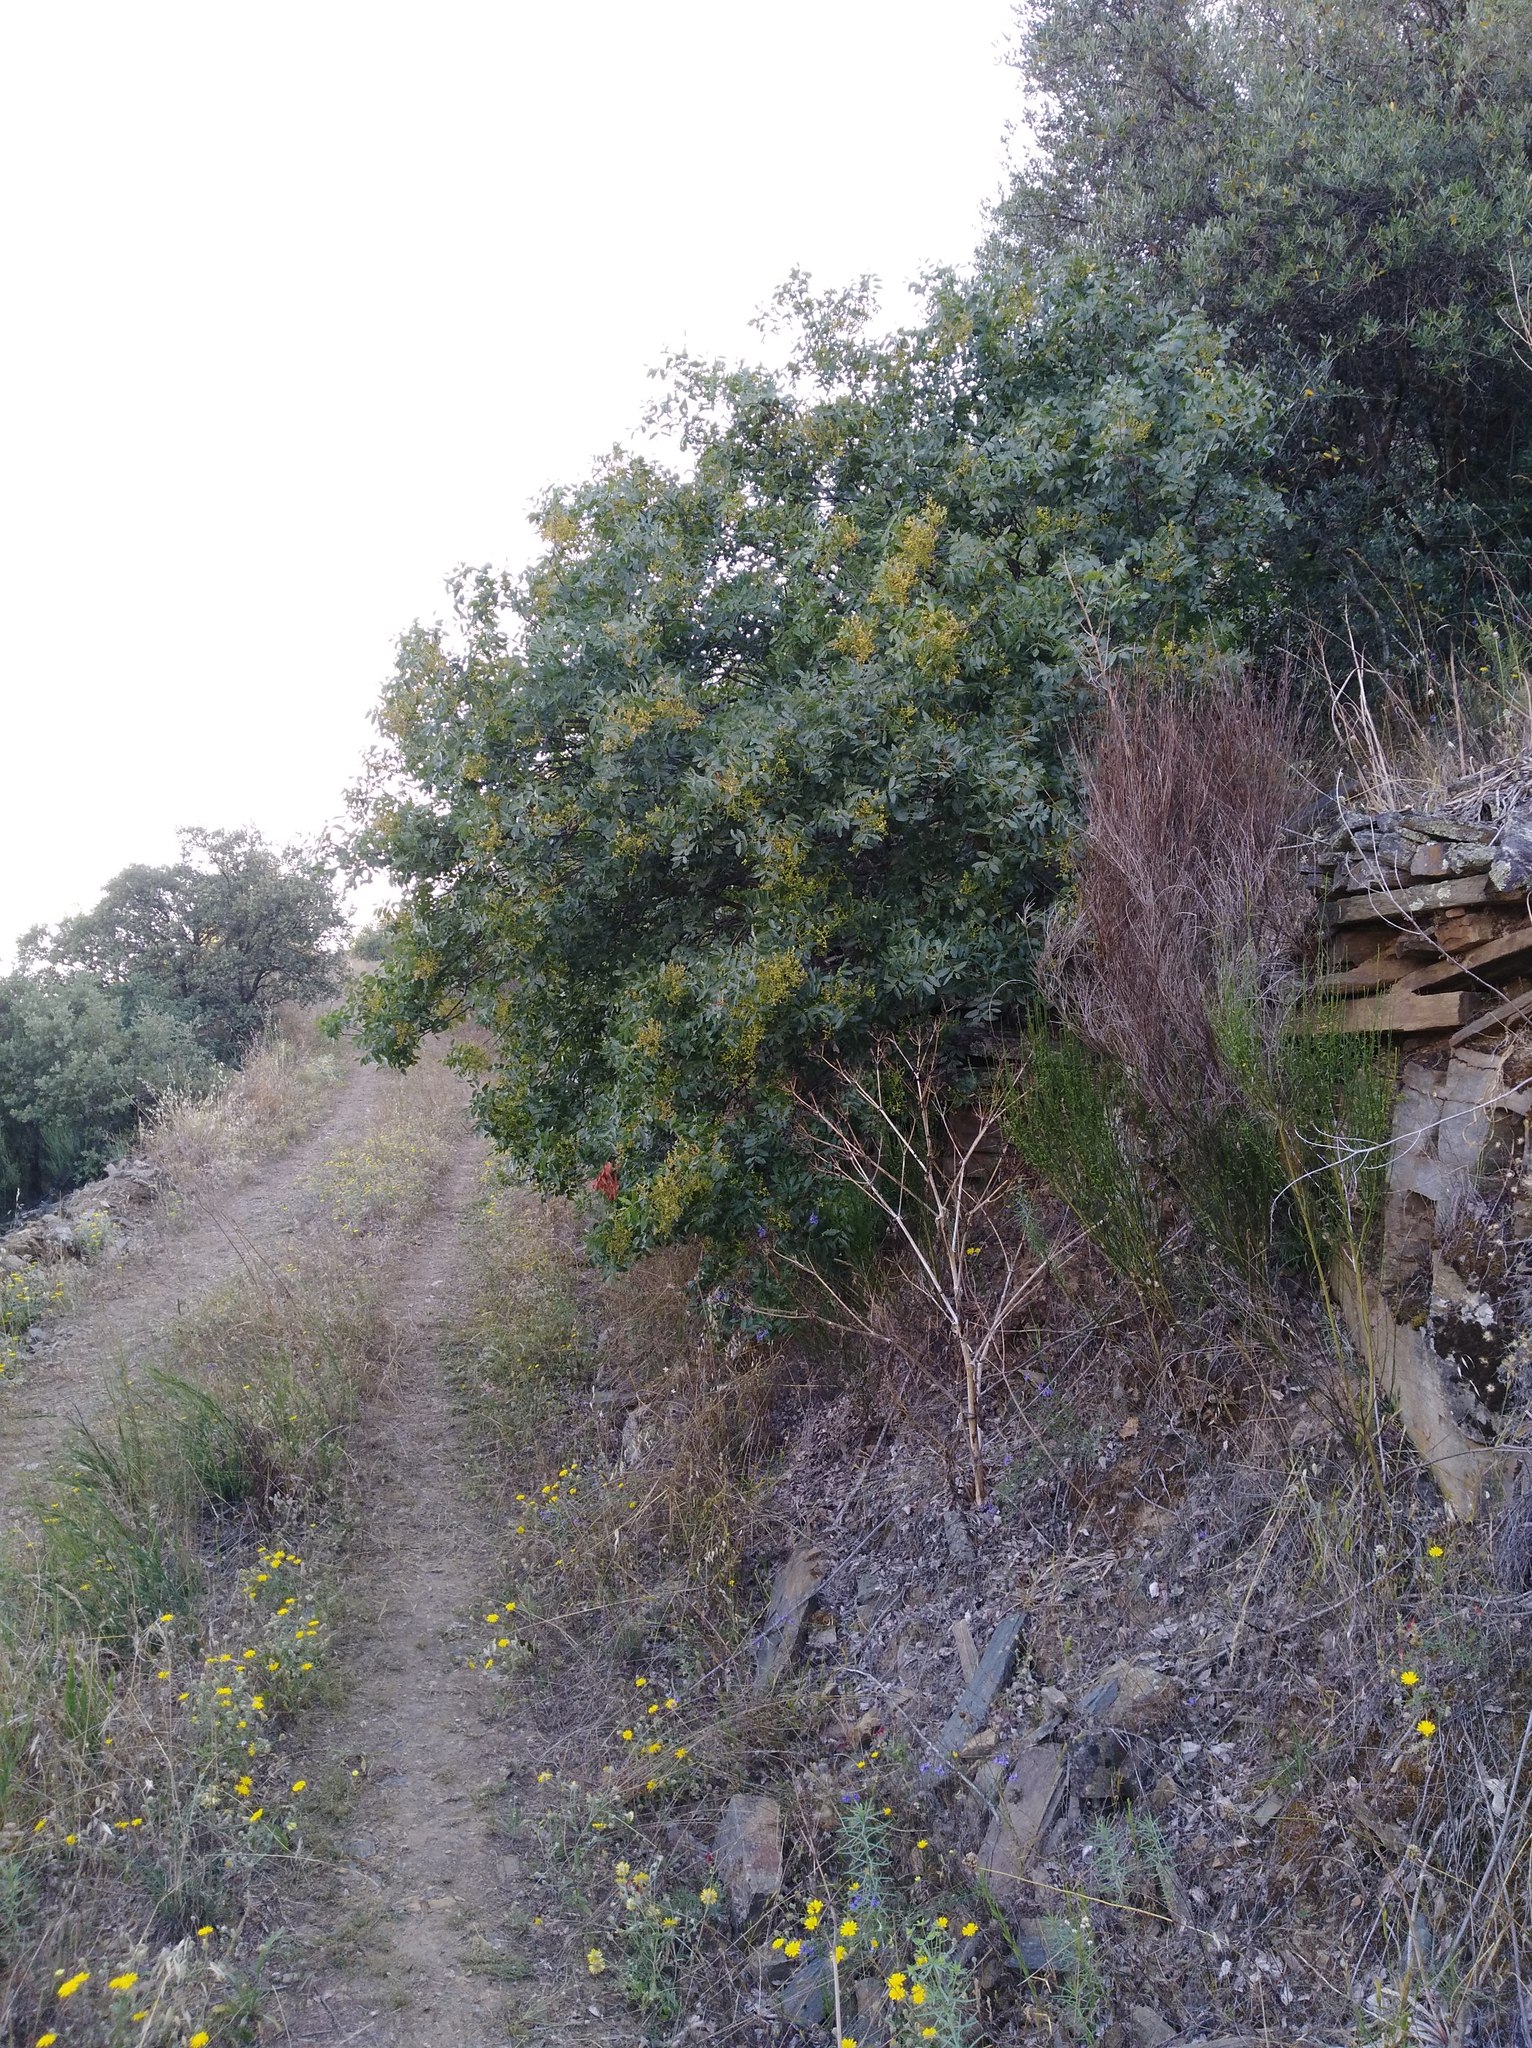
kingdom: Plantae
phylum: Tracheophyta
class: Magnoliopsida
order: Sapindales
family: Anacardiaceae
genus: Pistacia
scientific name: Pistacia terebinthus
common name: Terebinth
